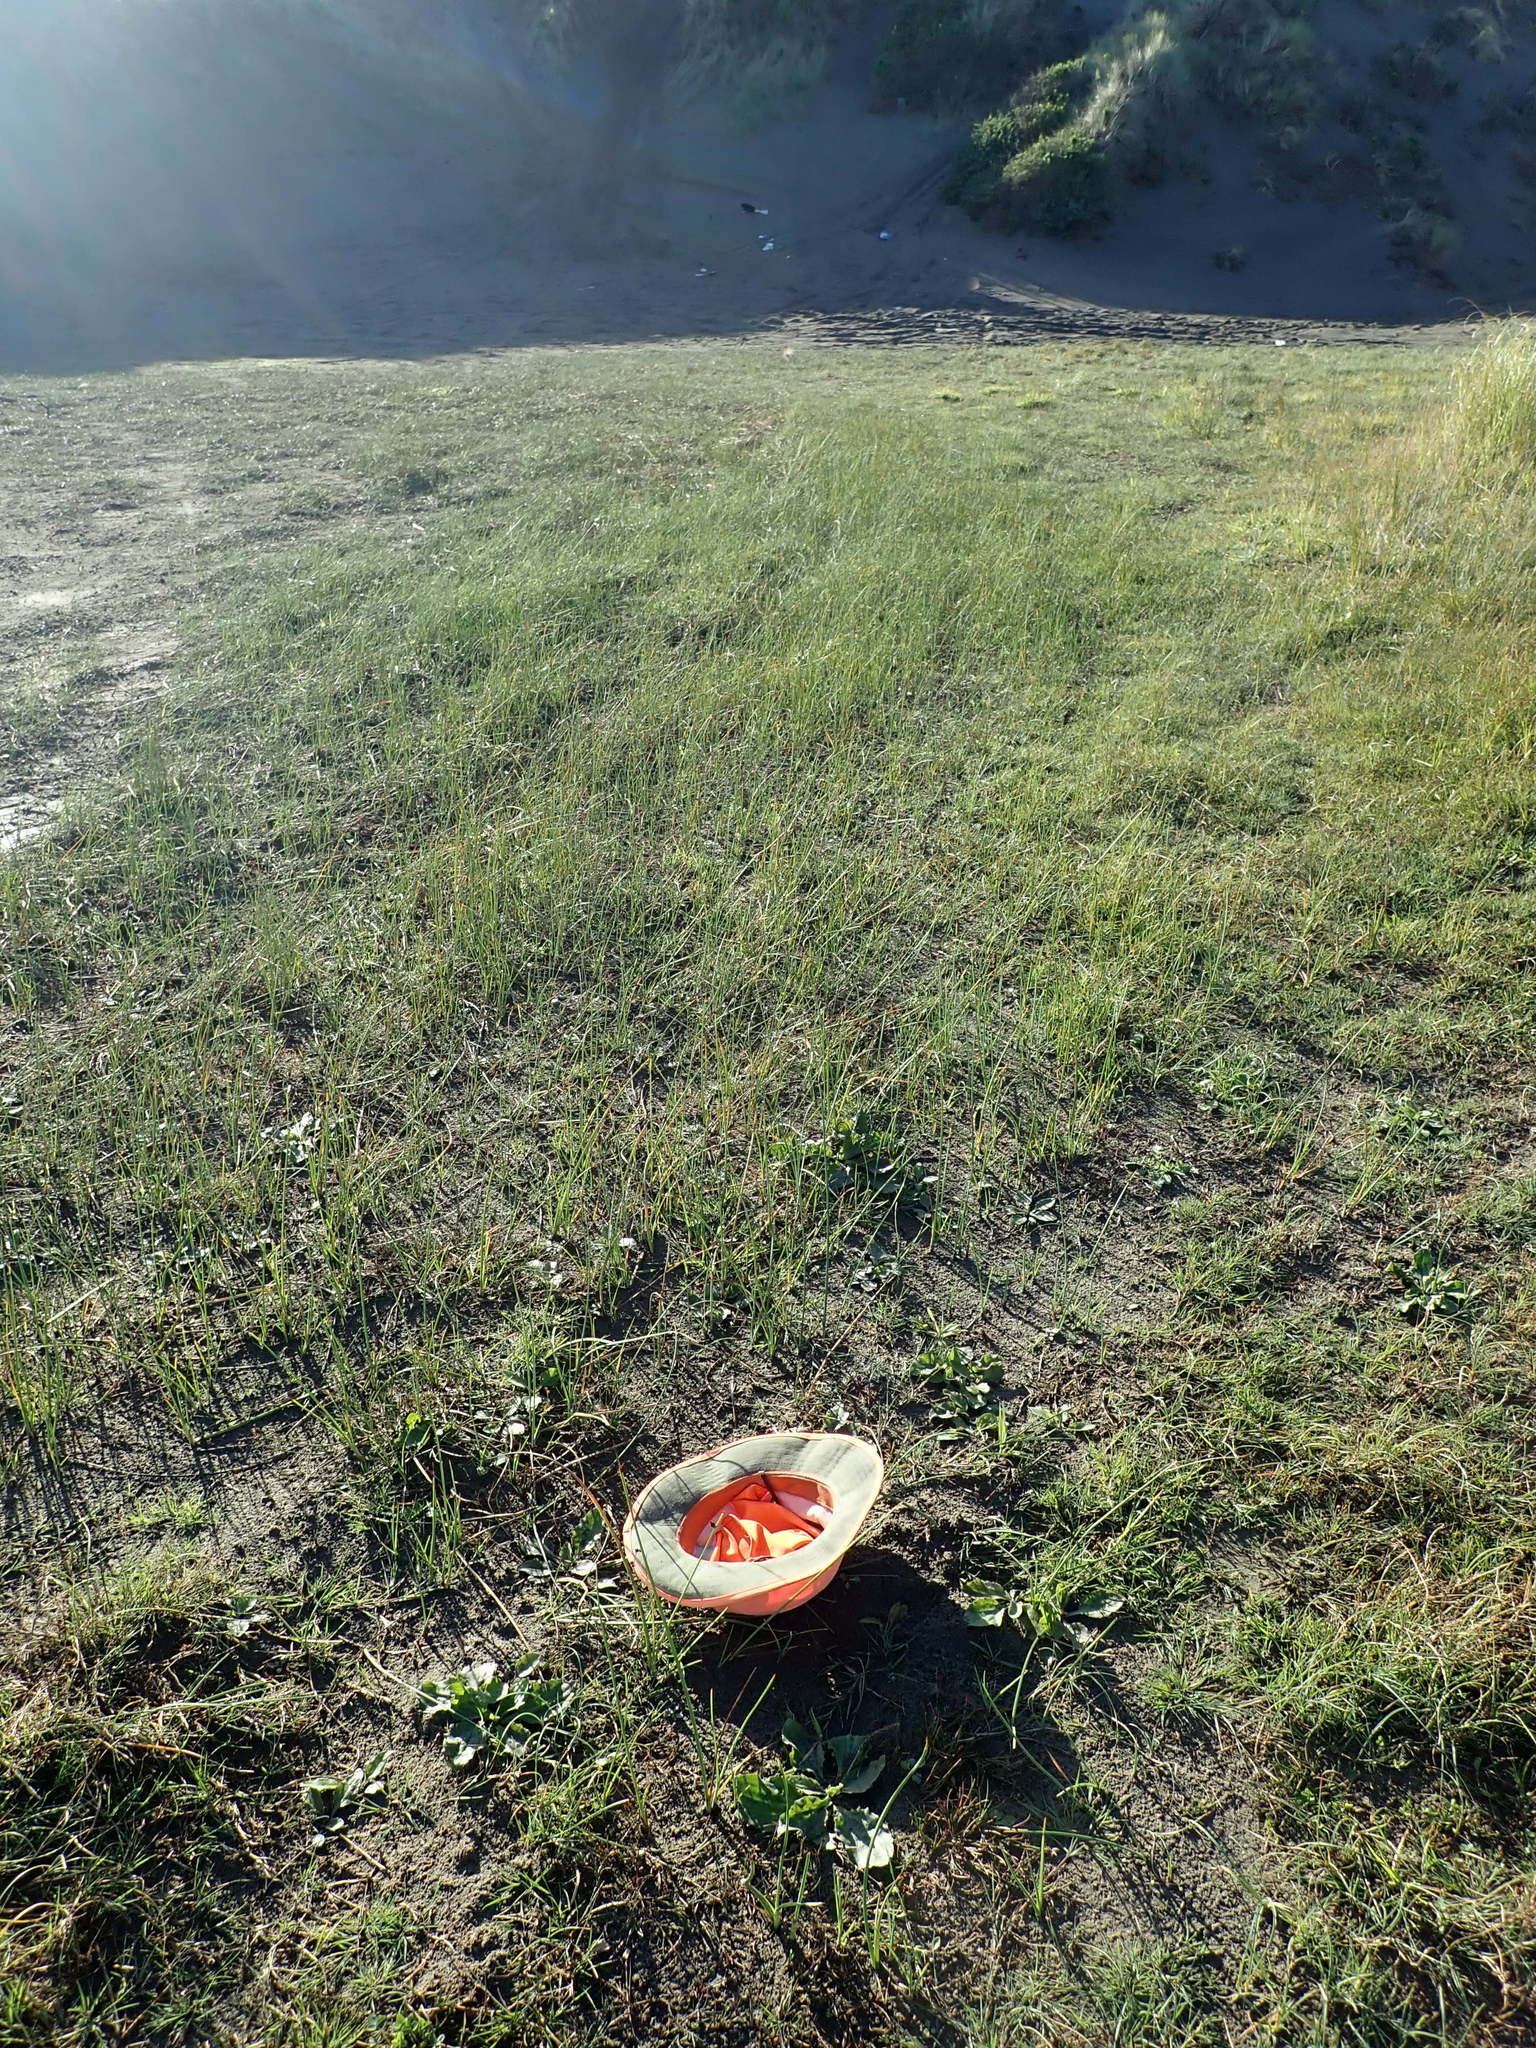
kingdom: Plantae
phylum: Tracheophyta
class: Magnoliopsida
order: Lamiales
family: Plantaginaceae
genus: Plantago
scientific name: Plantago major
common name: Common plantain
